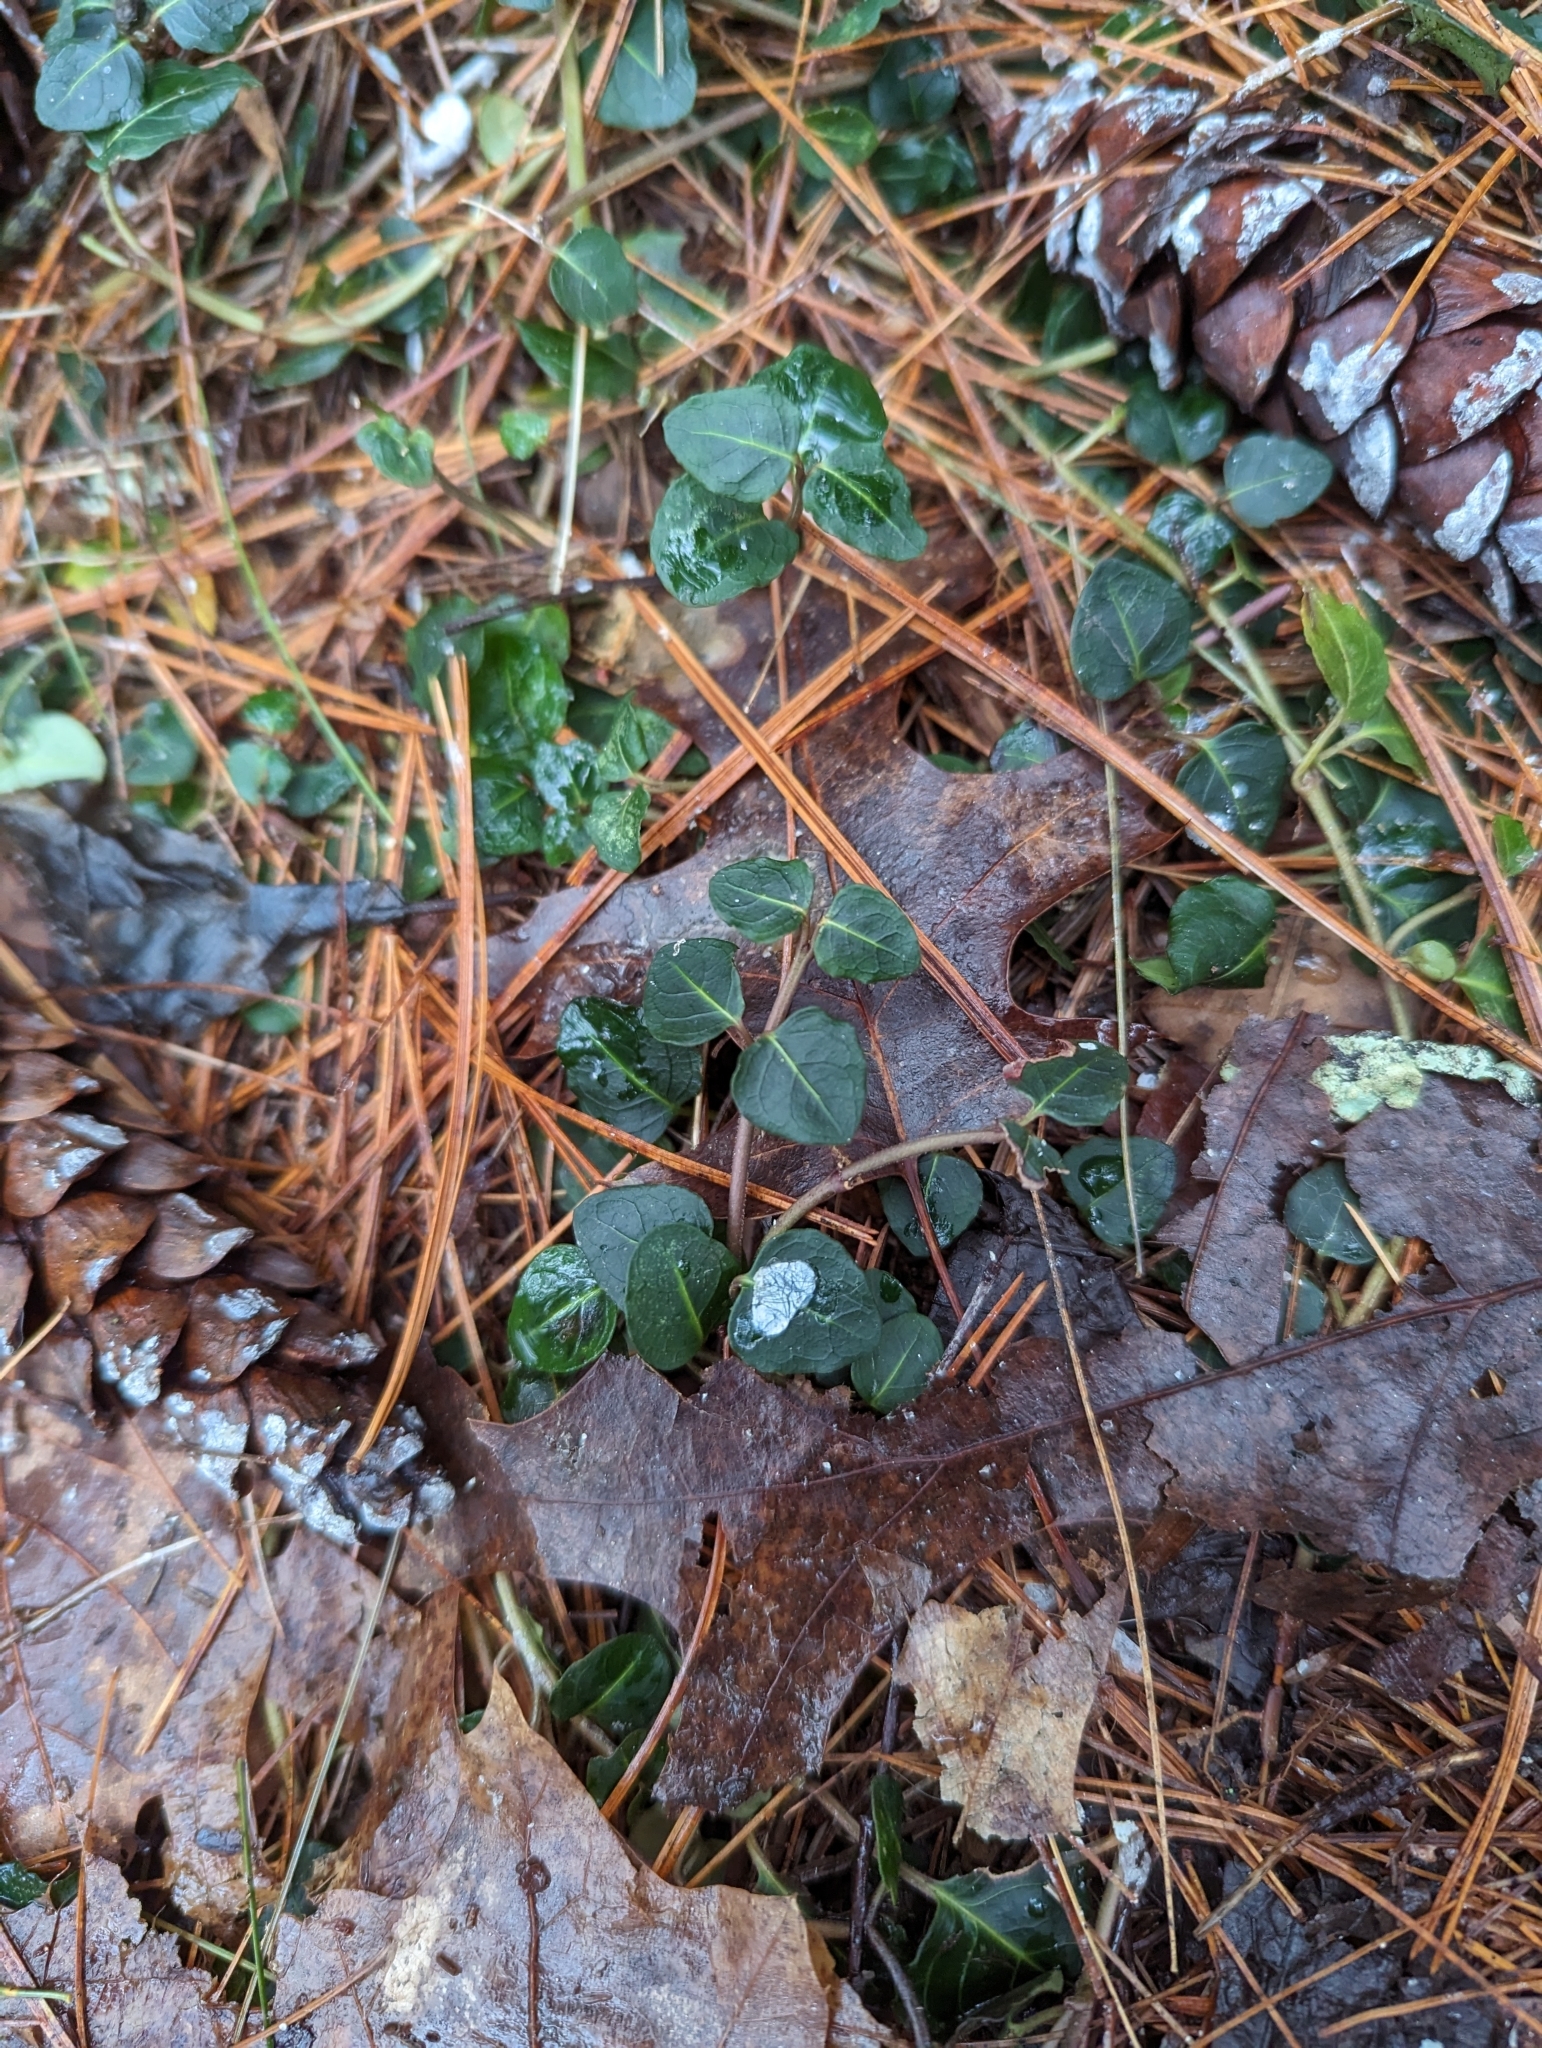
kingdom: Plantae
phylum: Tracheophyta
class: Magnoliopsida
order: Gentianales
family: Rubiaceae
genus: Mitchella
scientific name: Mitchella repens
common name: Partridge-berry
